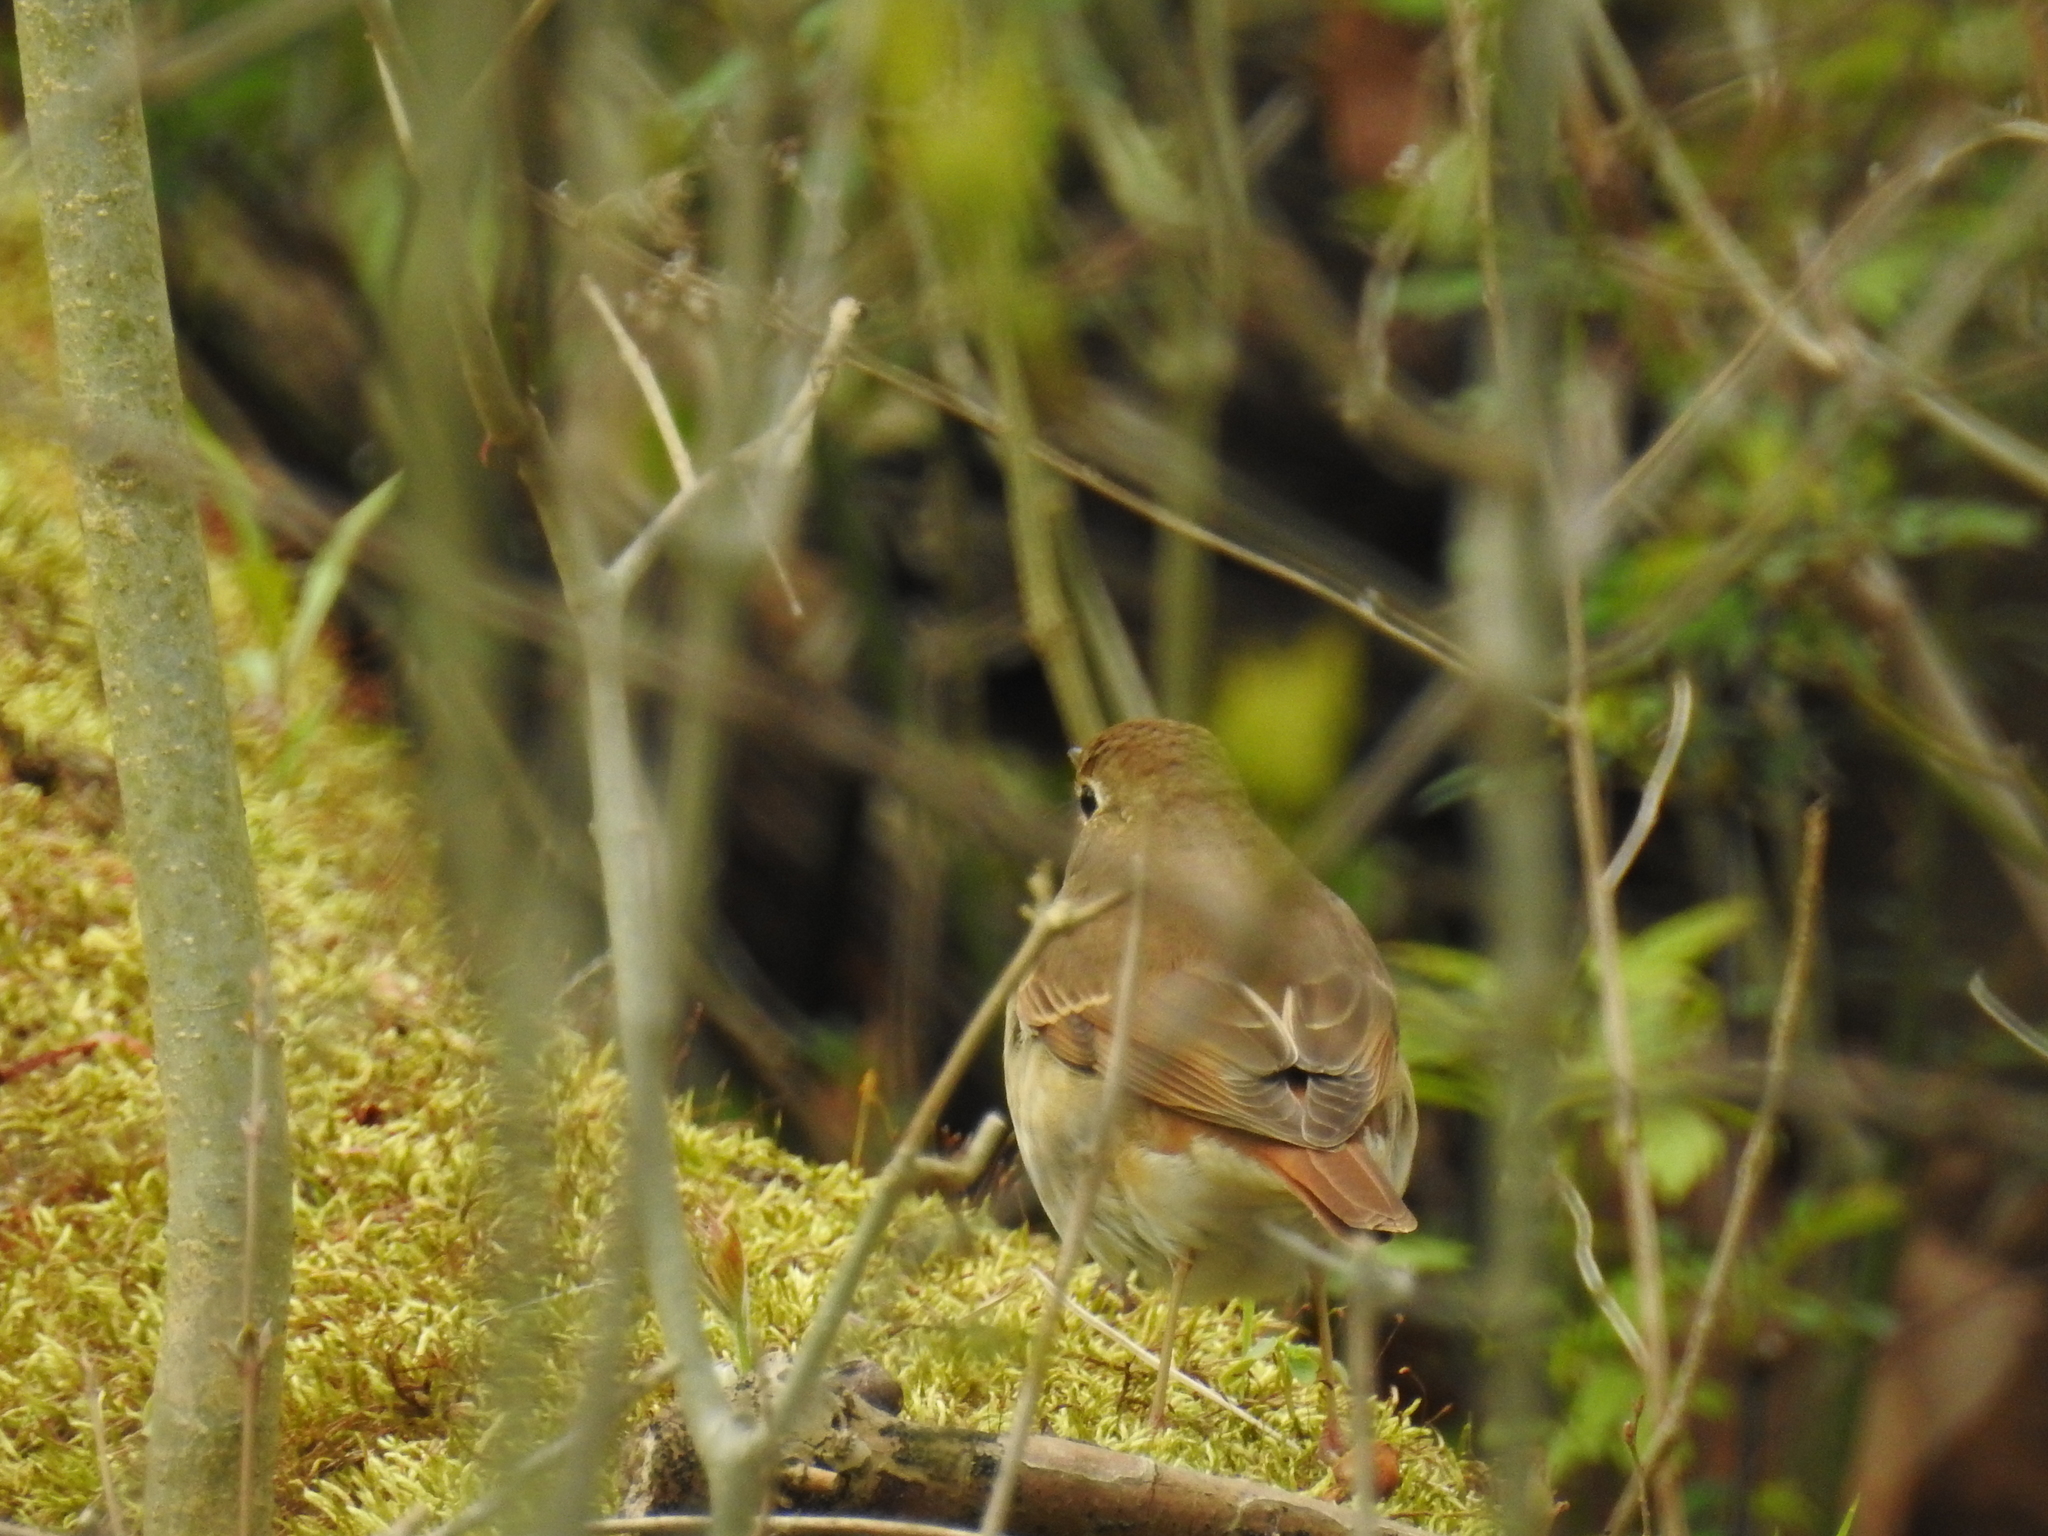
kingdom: Animalia
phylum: Chordata
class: Aves
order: Passeriformes
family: Turdidae
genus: Catharus
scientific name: Catharus guttatus
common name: Hermit thrush
